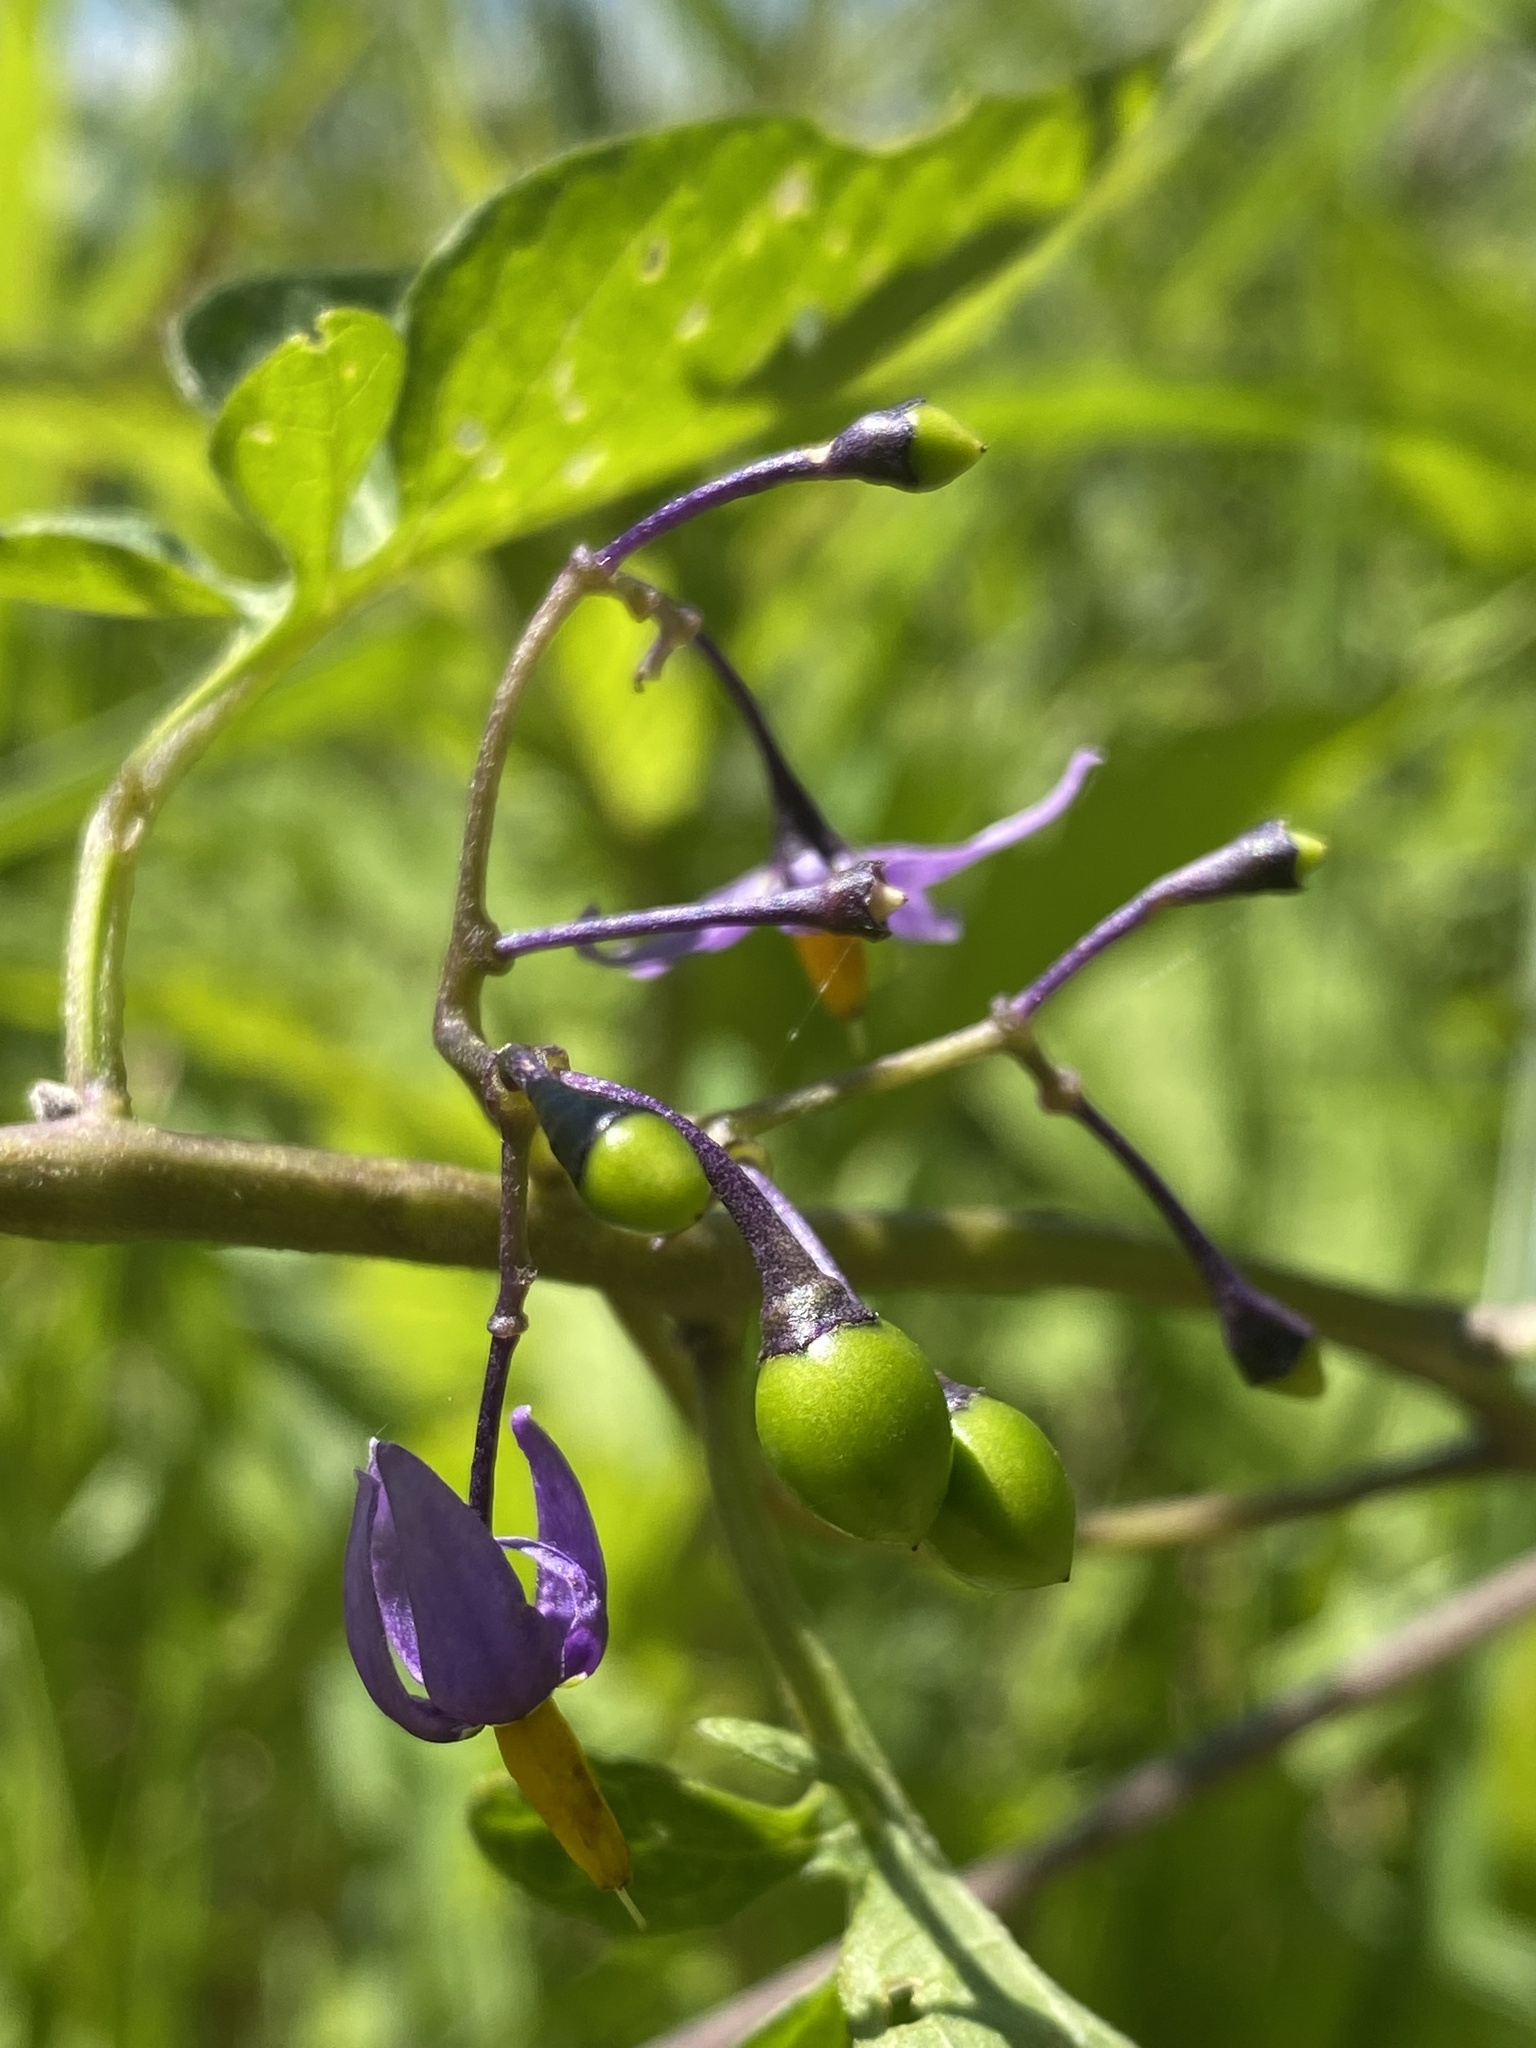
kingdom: Plantae
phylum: Tracheophyta
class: Magnoliopsida
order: Solanales
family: Solanaceae
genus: Solanum
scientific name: Solanum dulcamara
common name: Climbing nightshade
